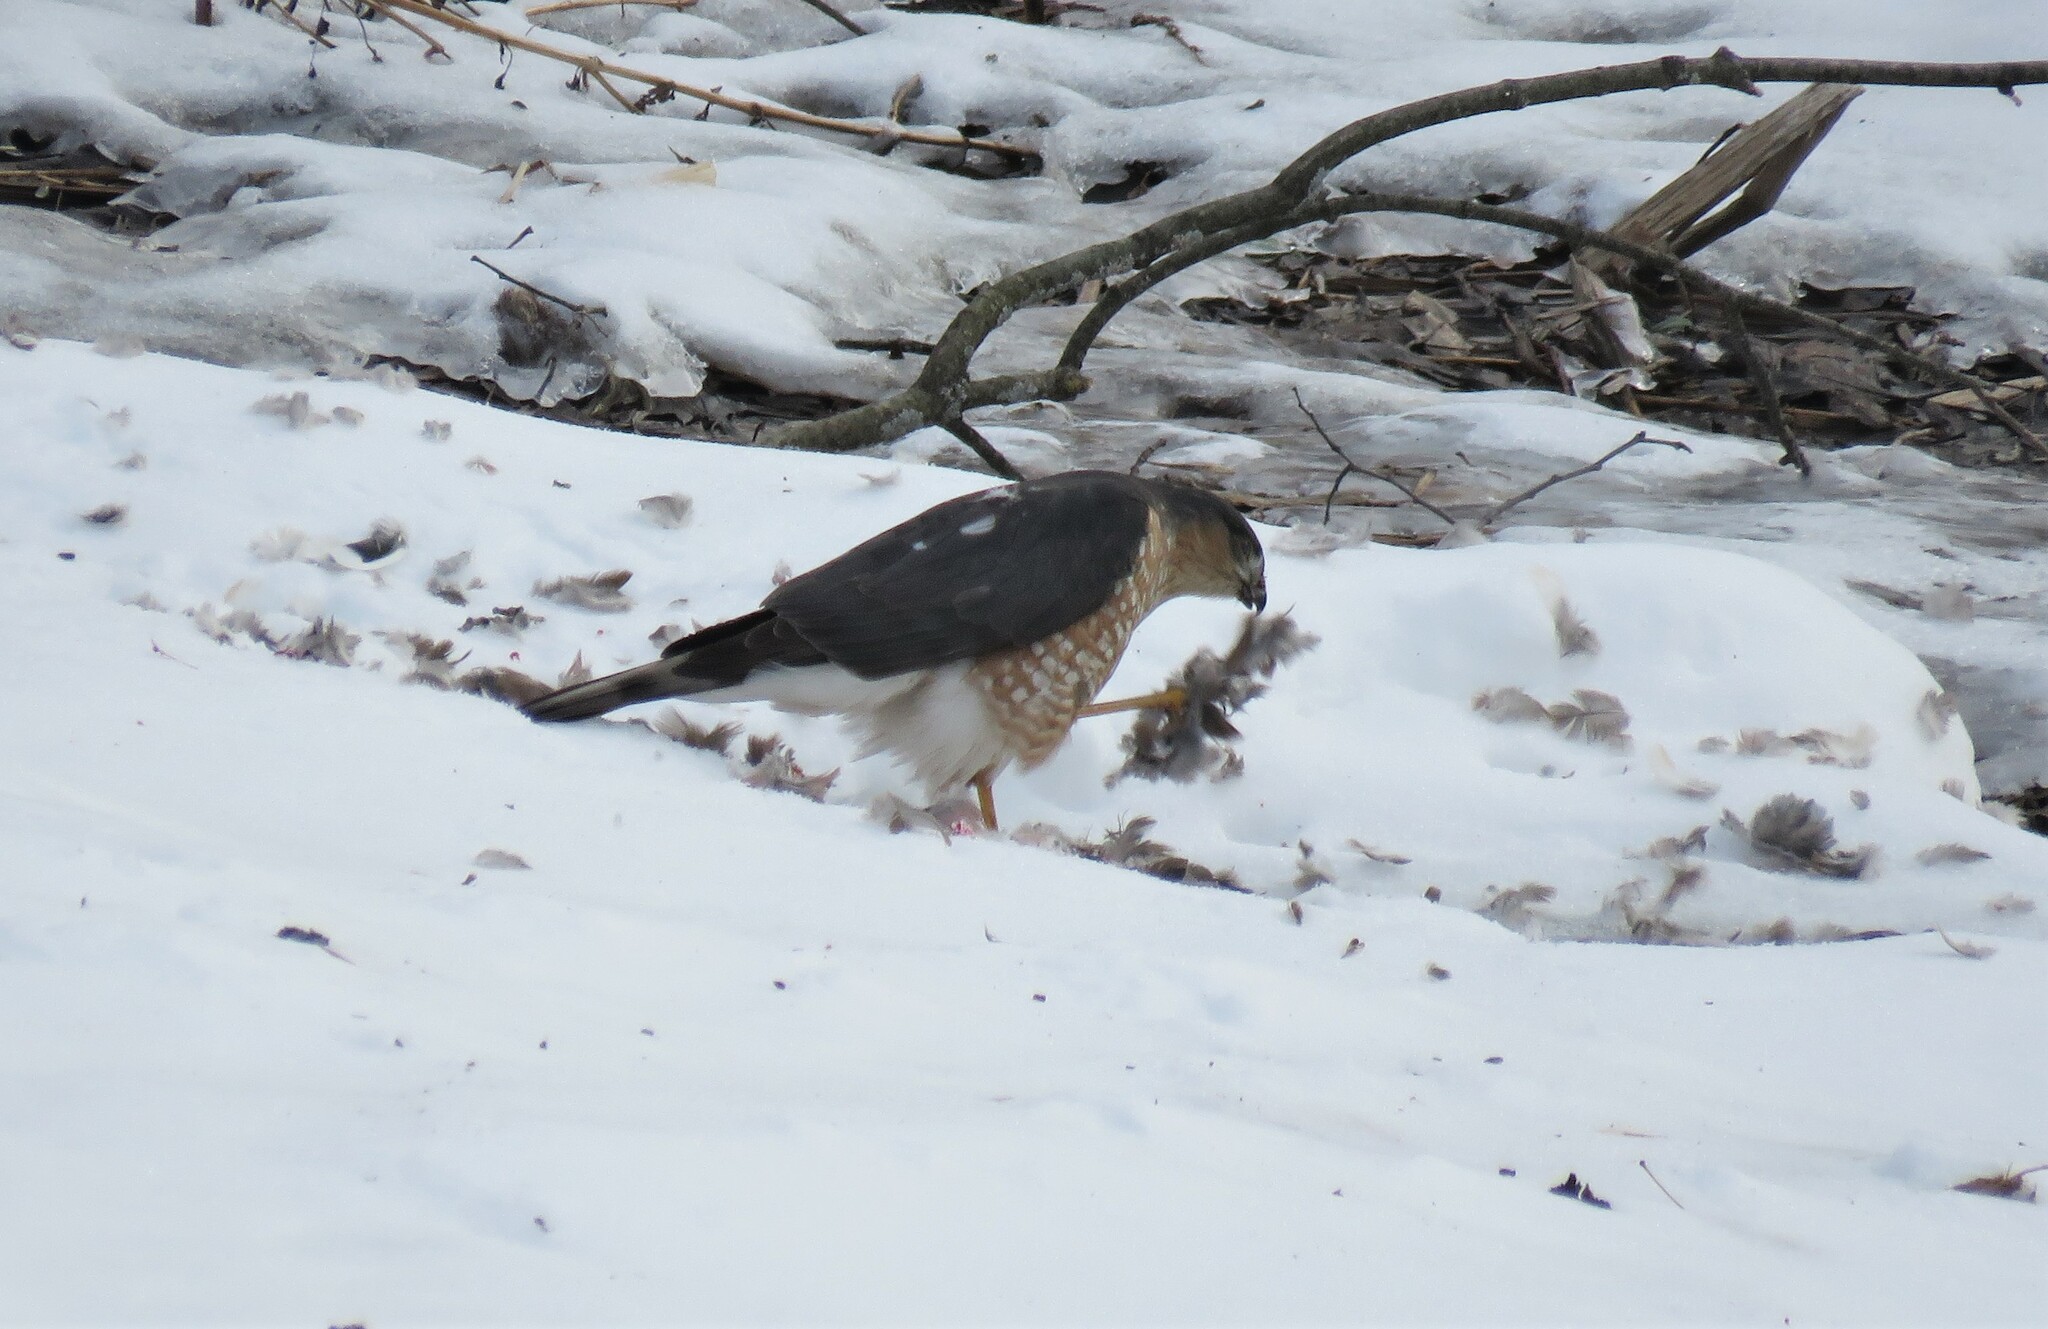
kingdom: Animalia
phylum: Chordata
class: Aves
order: Accipitriformes
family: Accipitridae
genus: Accipiter
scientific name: Accipiter striatus
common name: Sharp-shinned hawk
